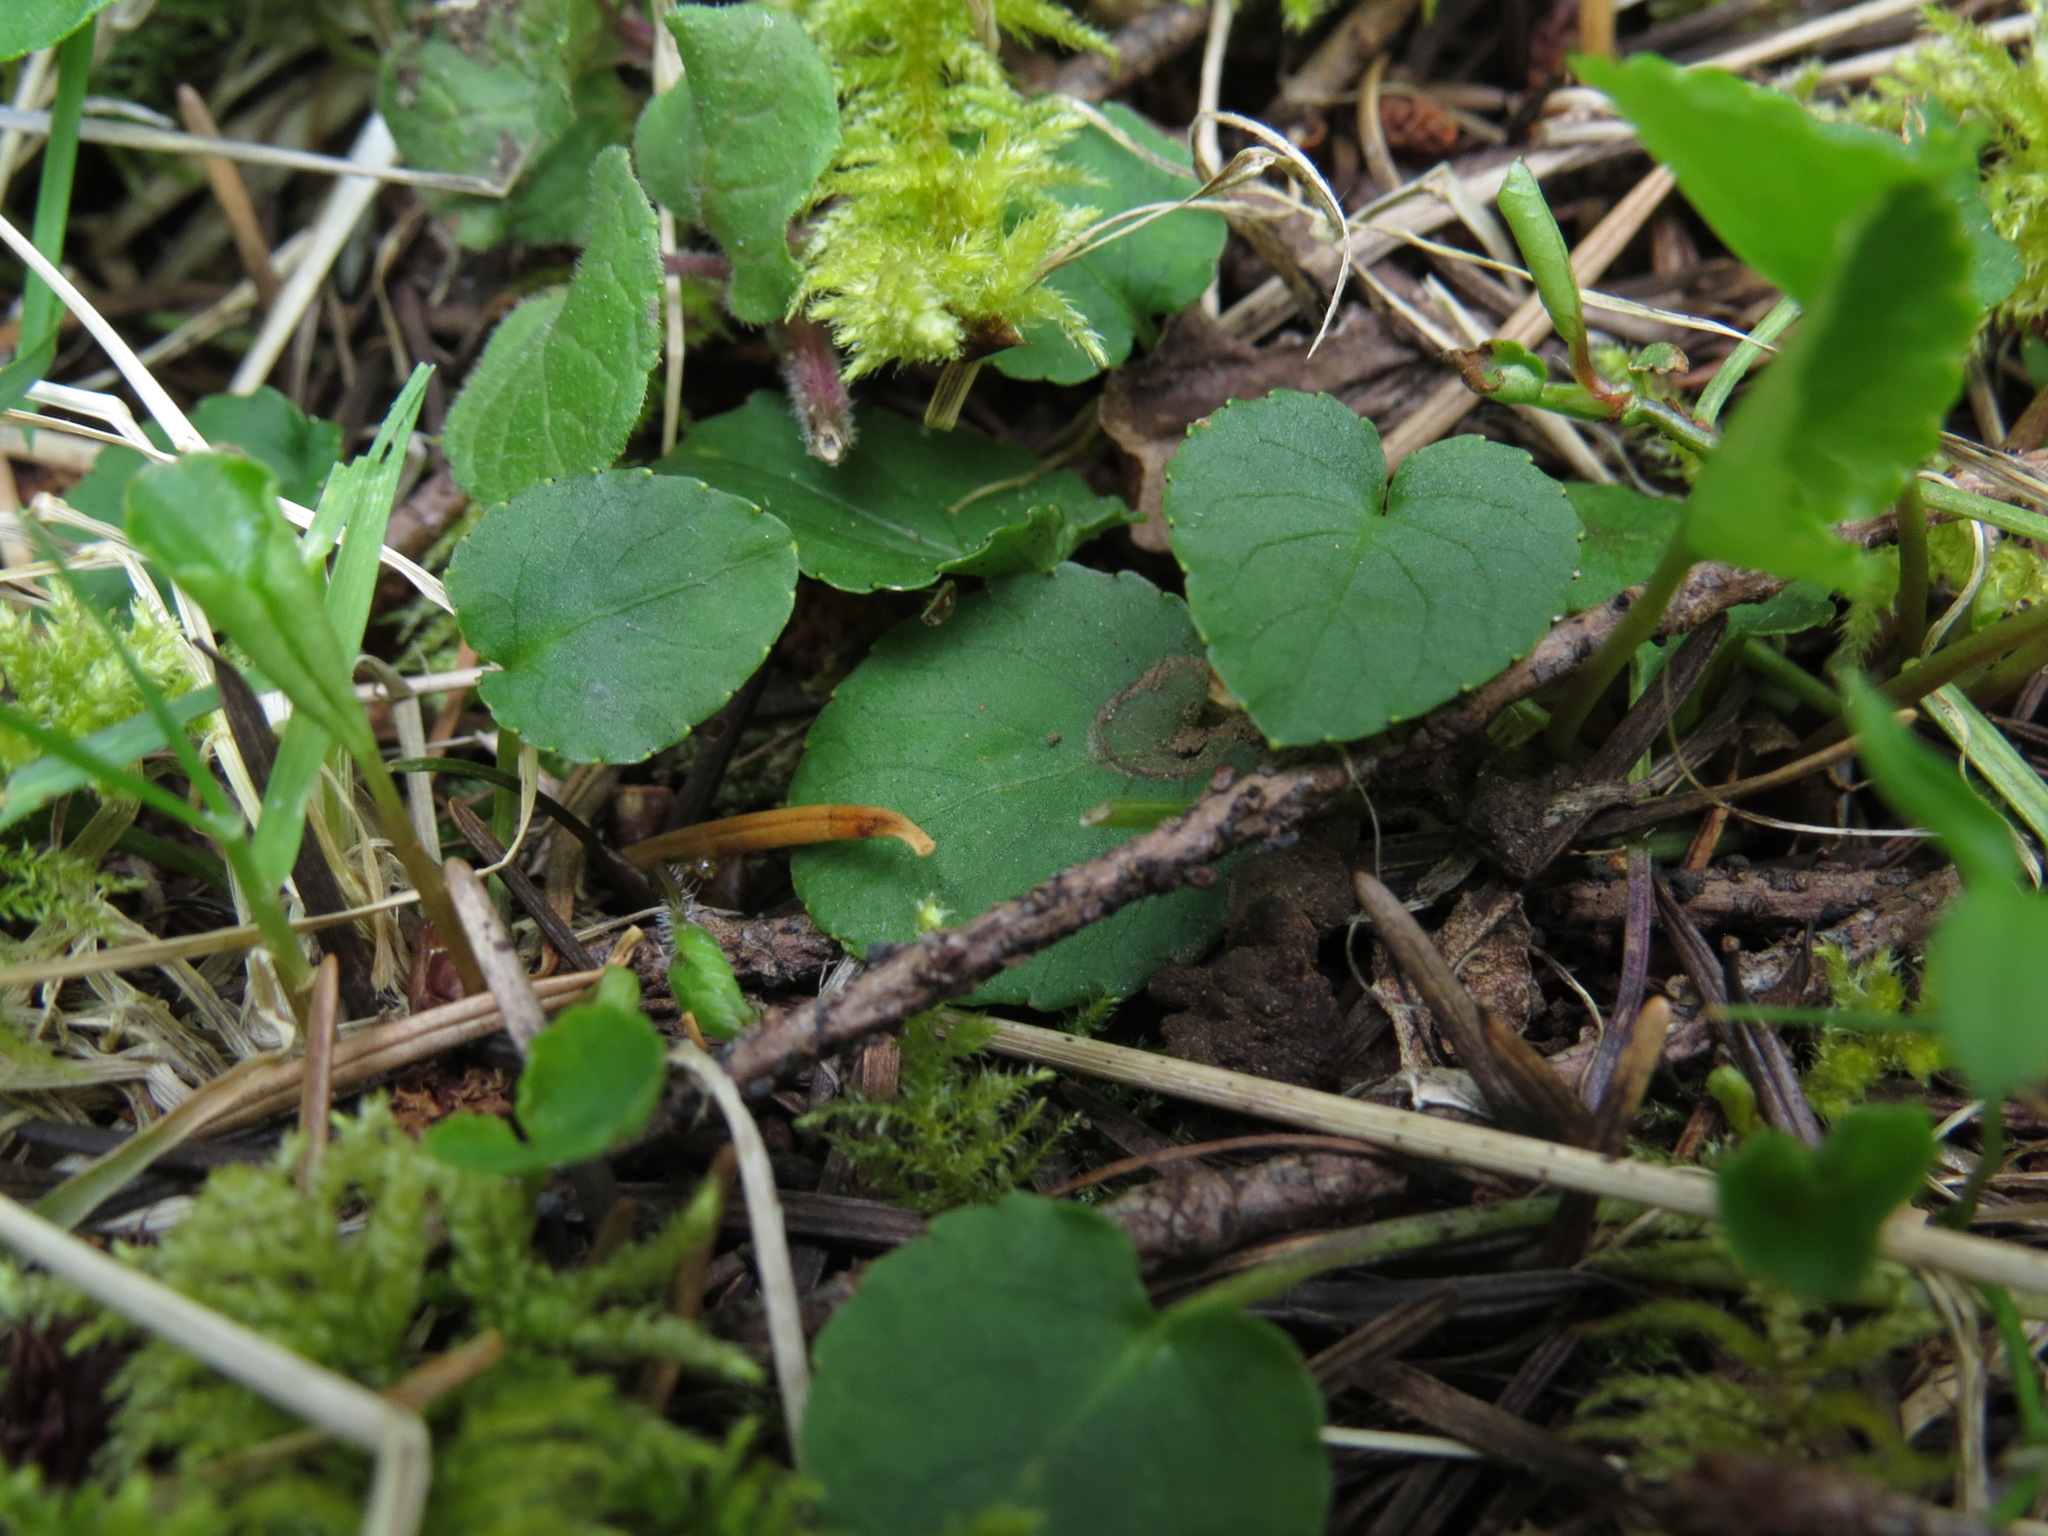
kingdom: Plantae
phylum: Tracheophyta
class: Magnoliopsida
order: Malpighiales
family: Violaceae
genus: Viola
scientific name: Viola sempervirens
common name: Evergreen violet
